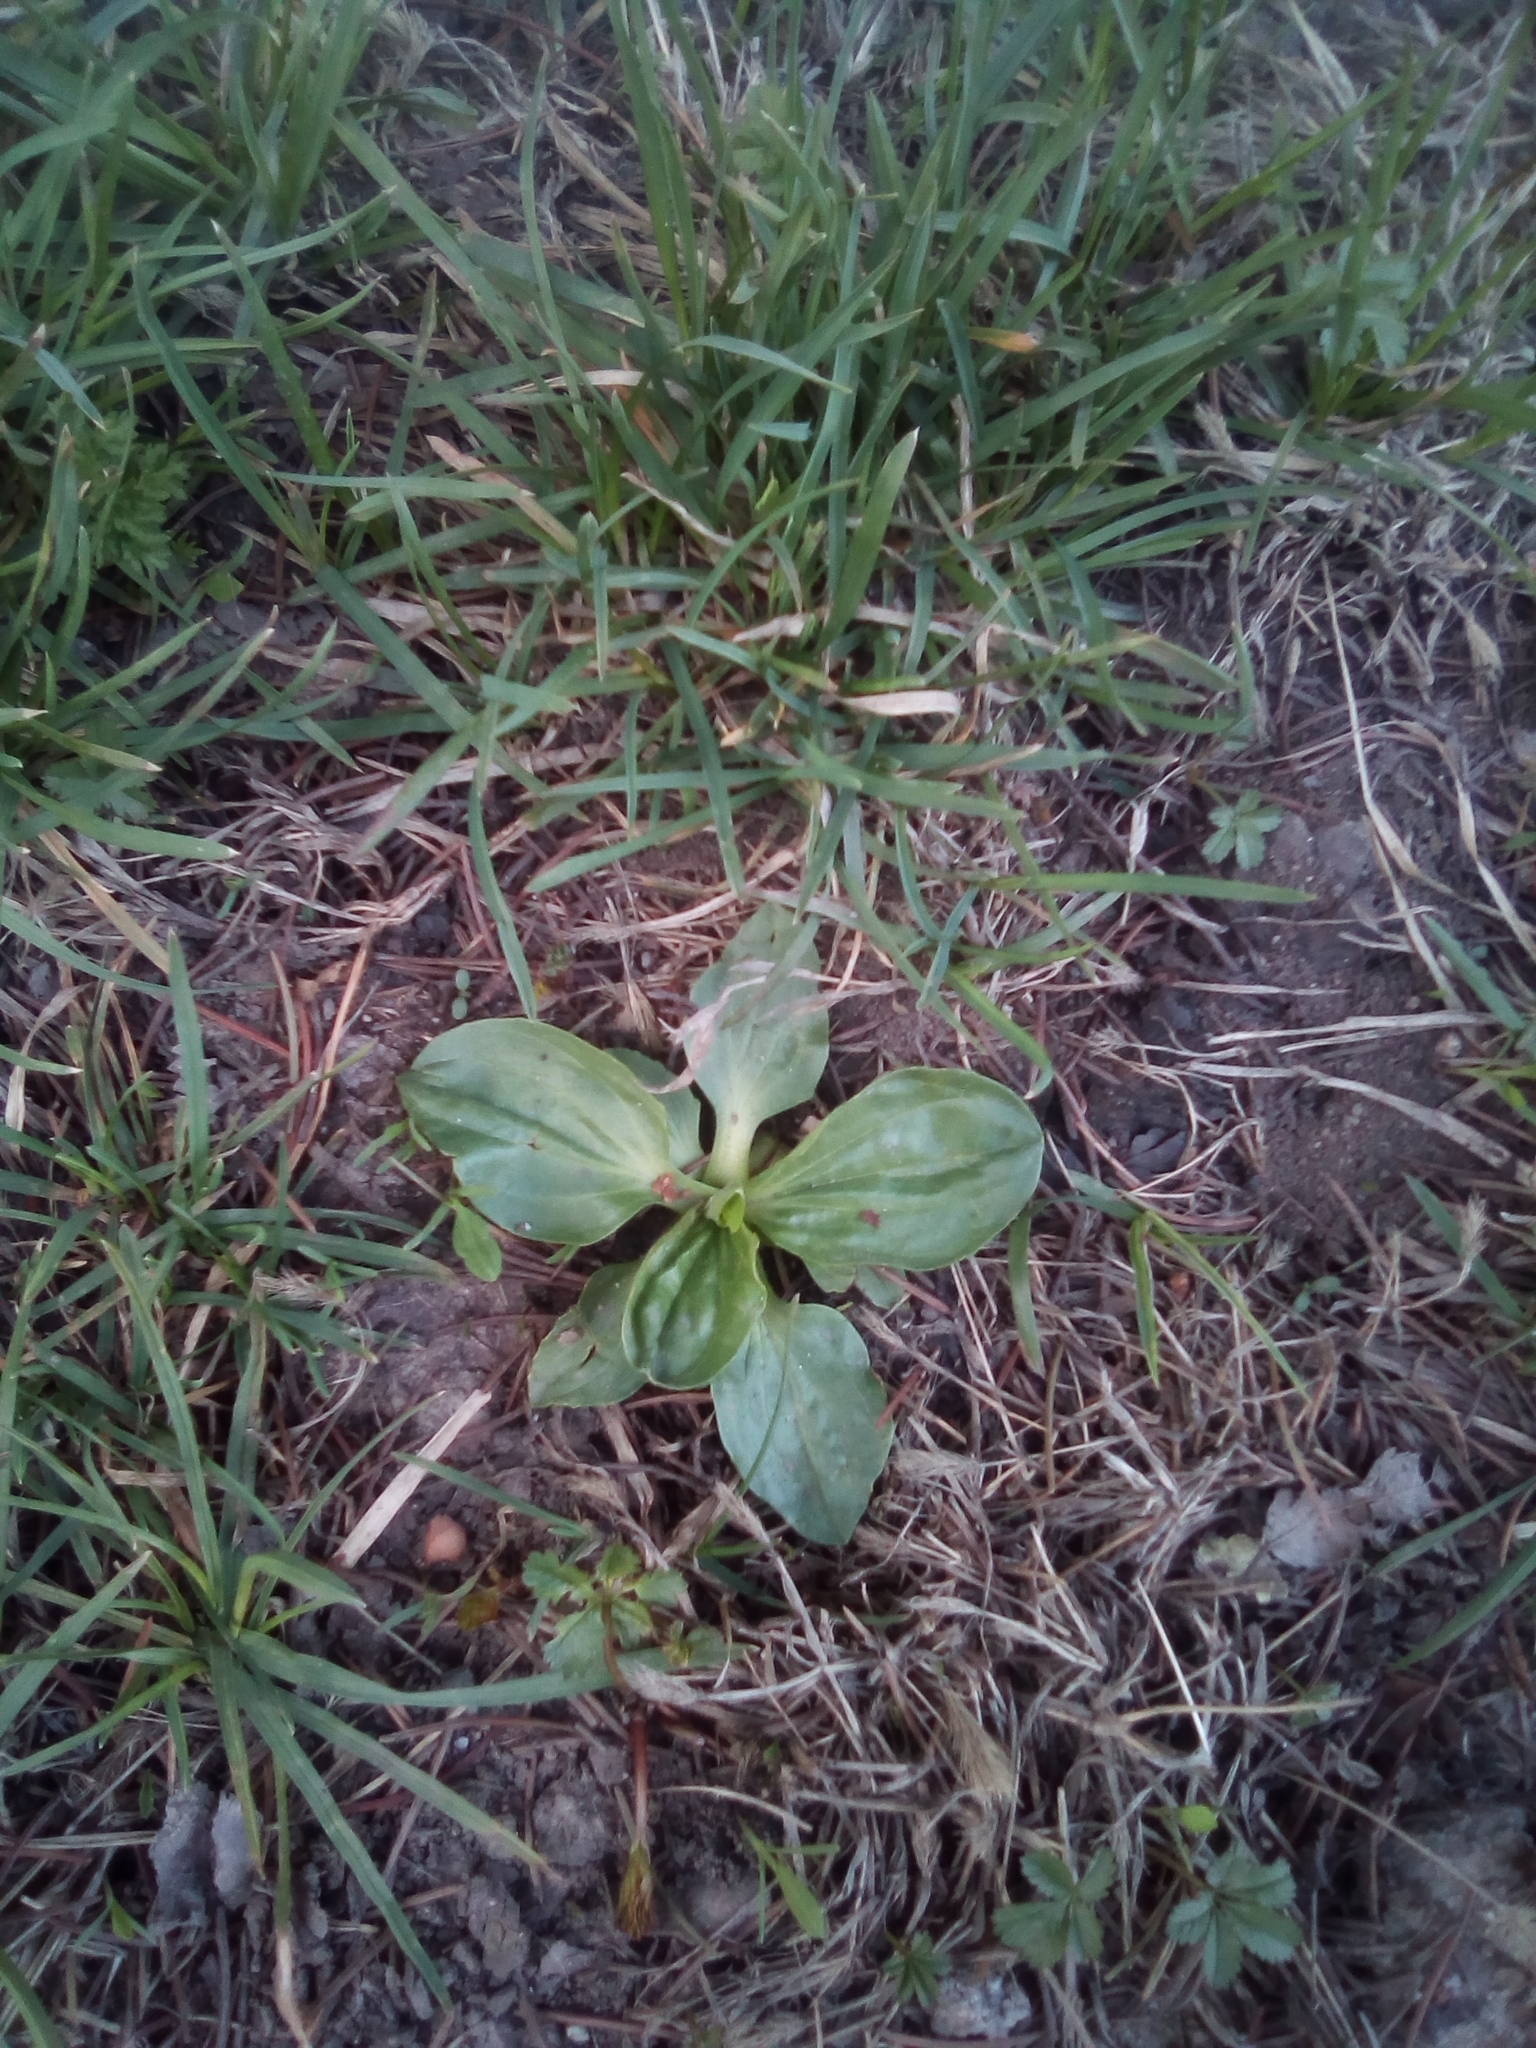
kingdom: Plantae
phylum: Tracheophyta
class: Magnoliopsida
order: Lamiales
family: Plantaginaceae
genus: Plantago
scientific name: Plantago major
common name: Common plantain
